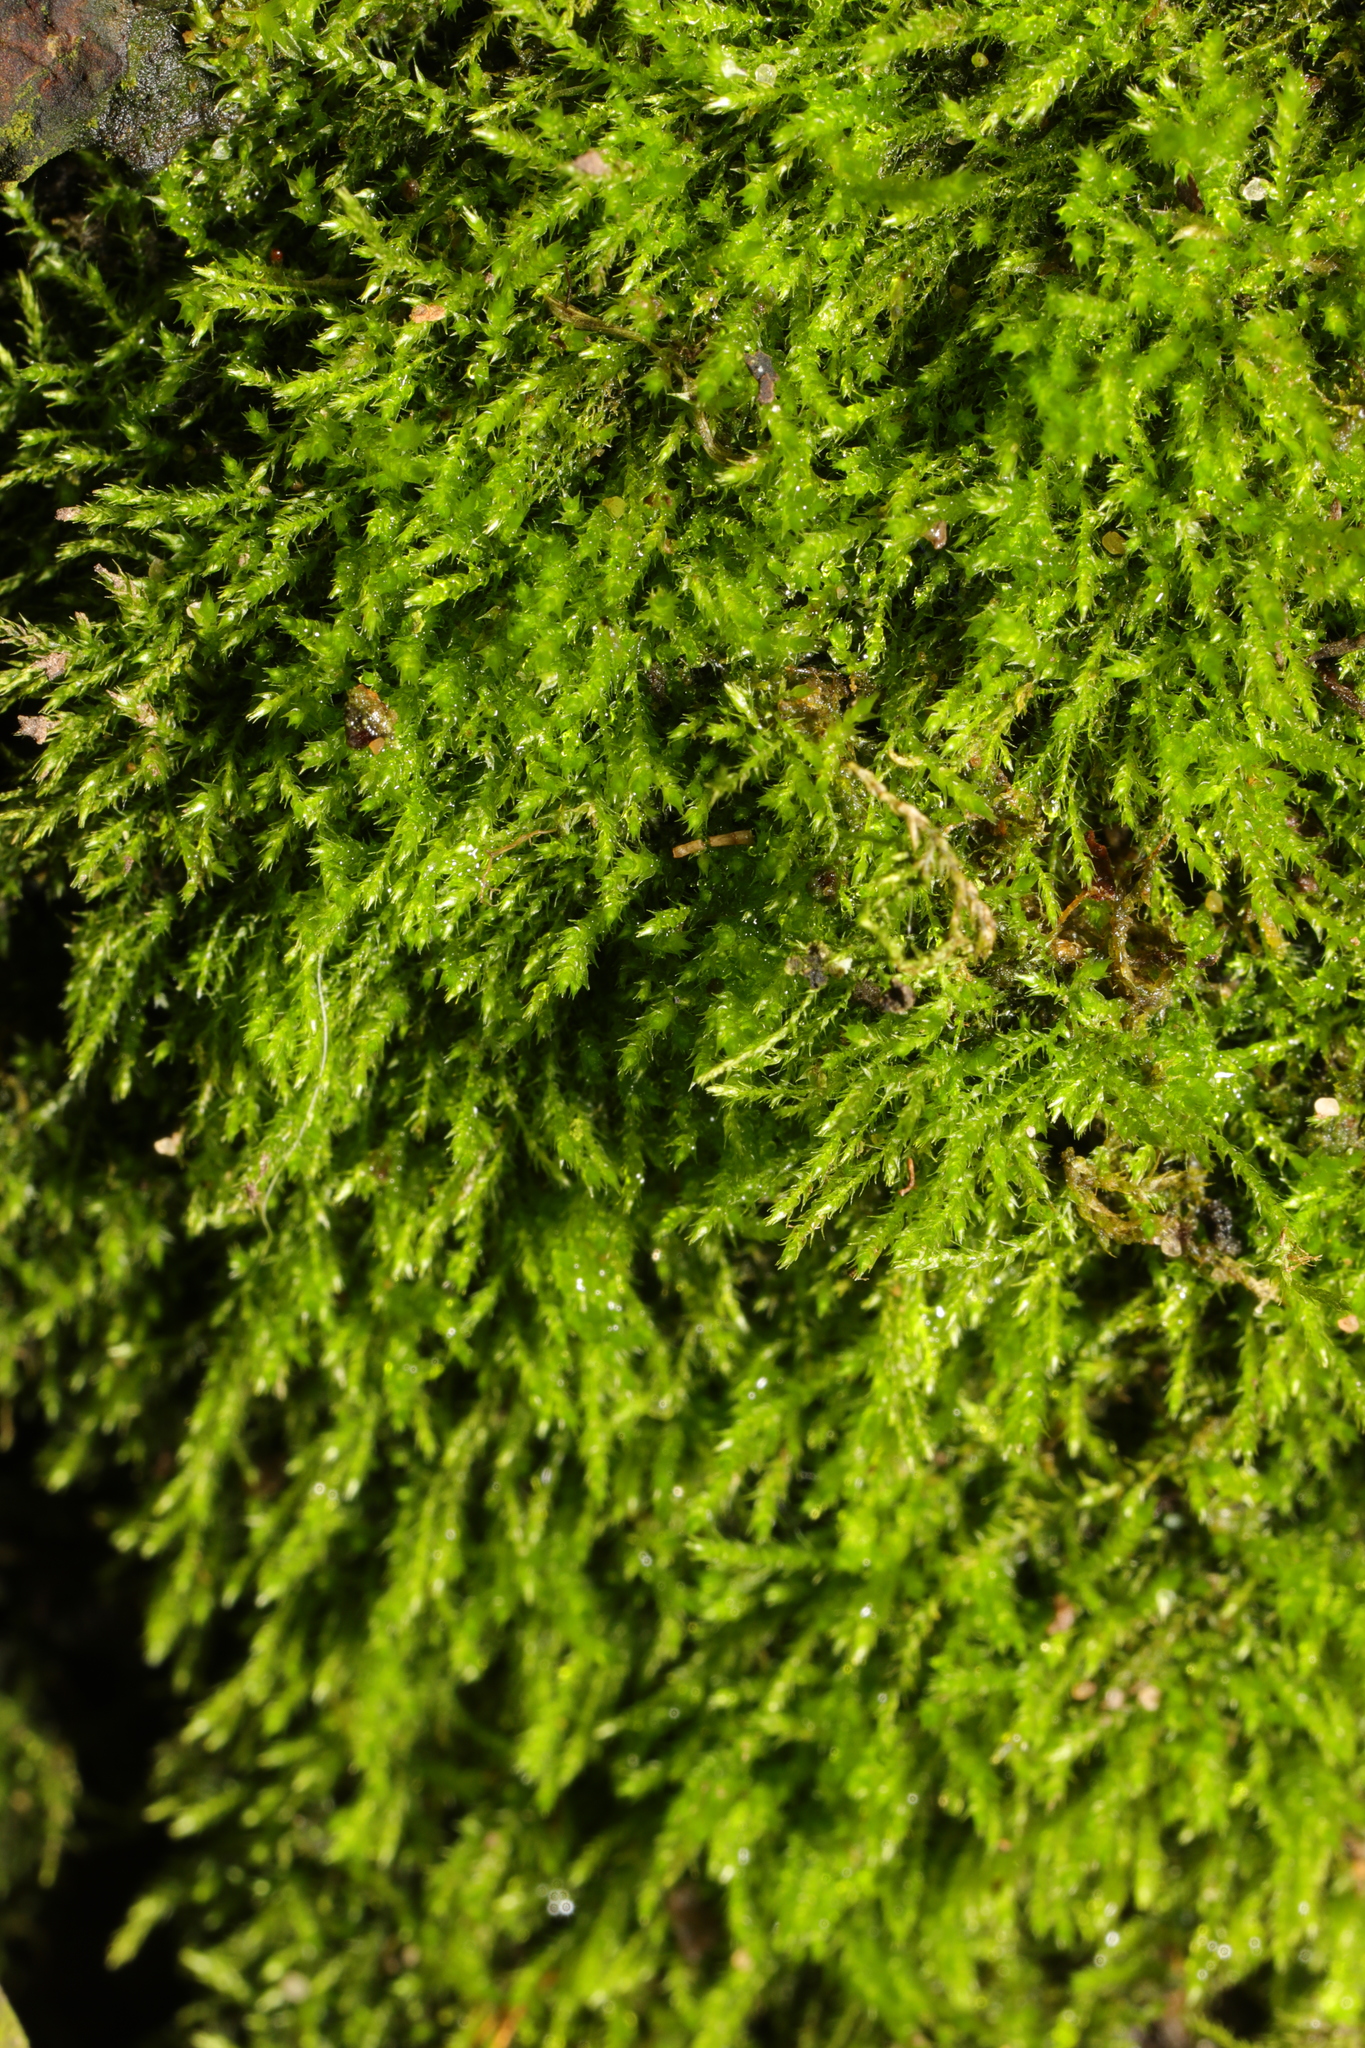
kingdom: Plantae
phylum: Bryophyta
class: Bryopsida
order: Hypnales
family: Amblystegiaceae
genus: Amblystegium
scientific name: Amblystegium serpens
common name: Jurkatzka's feather moss
